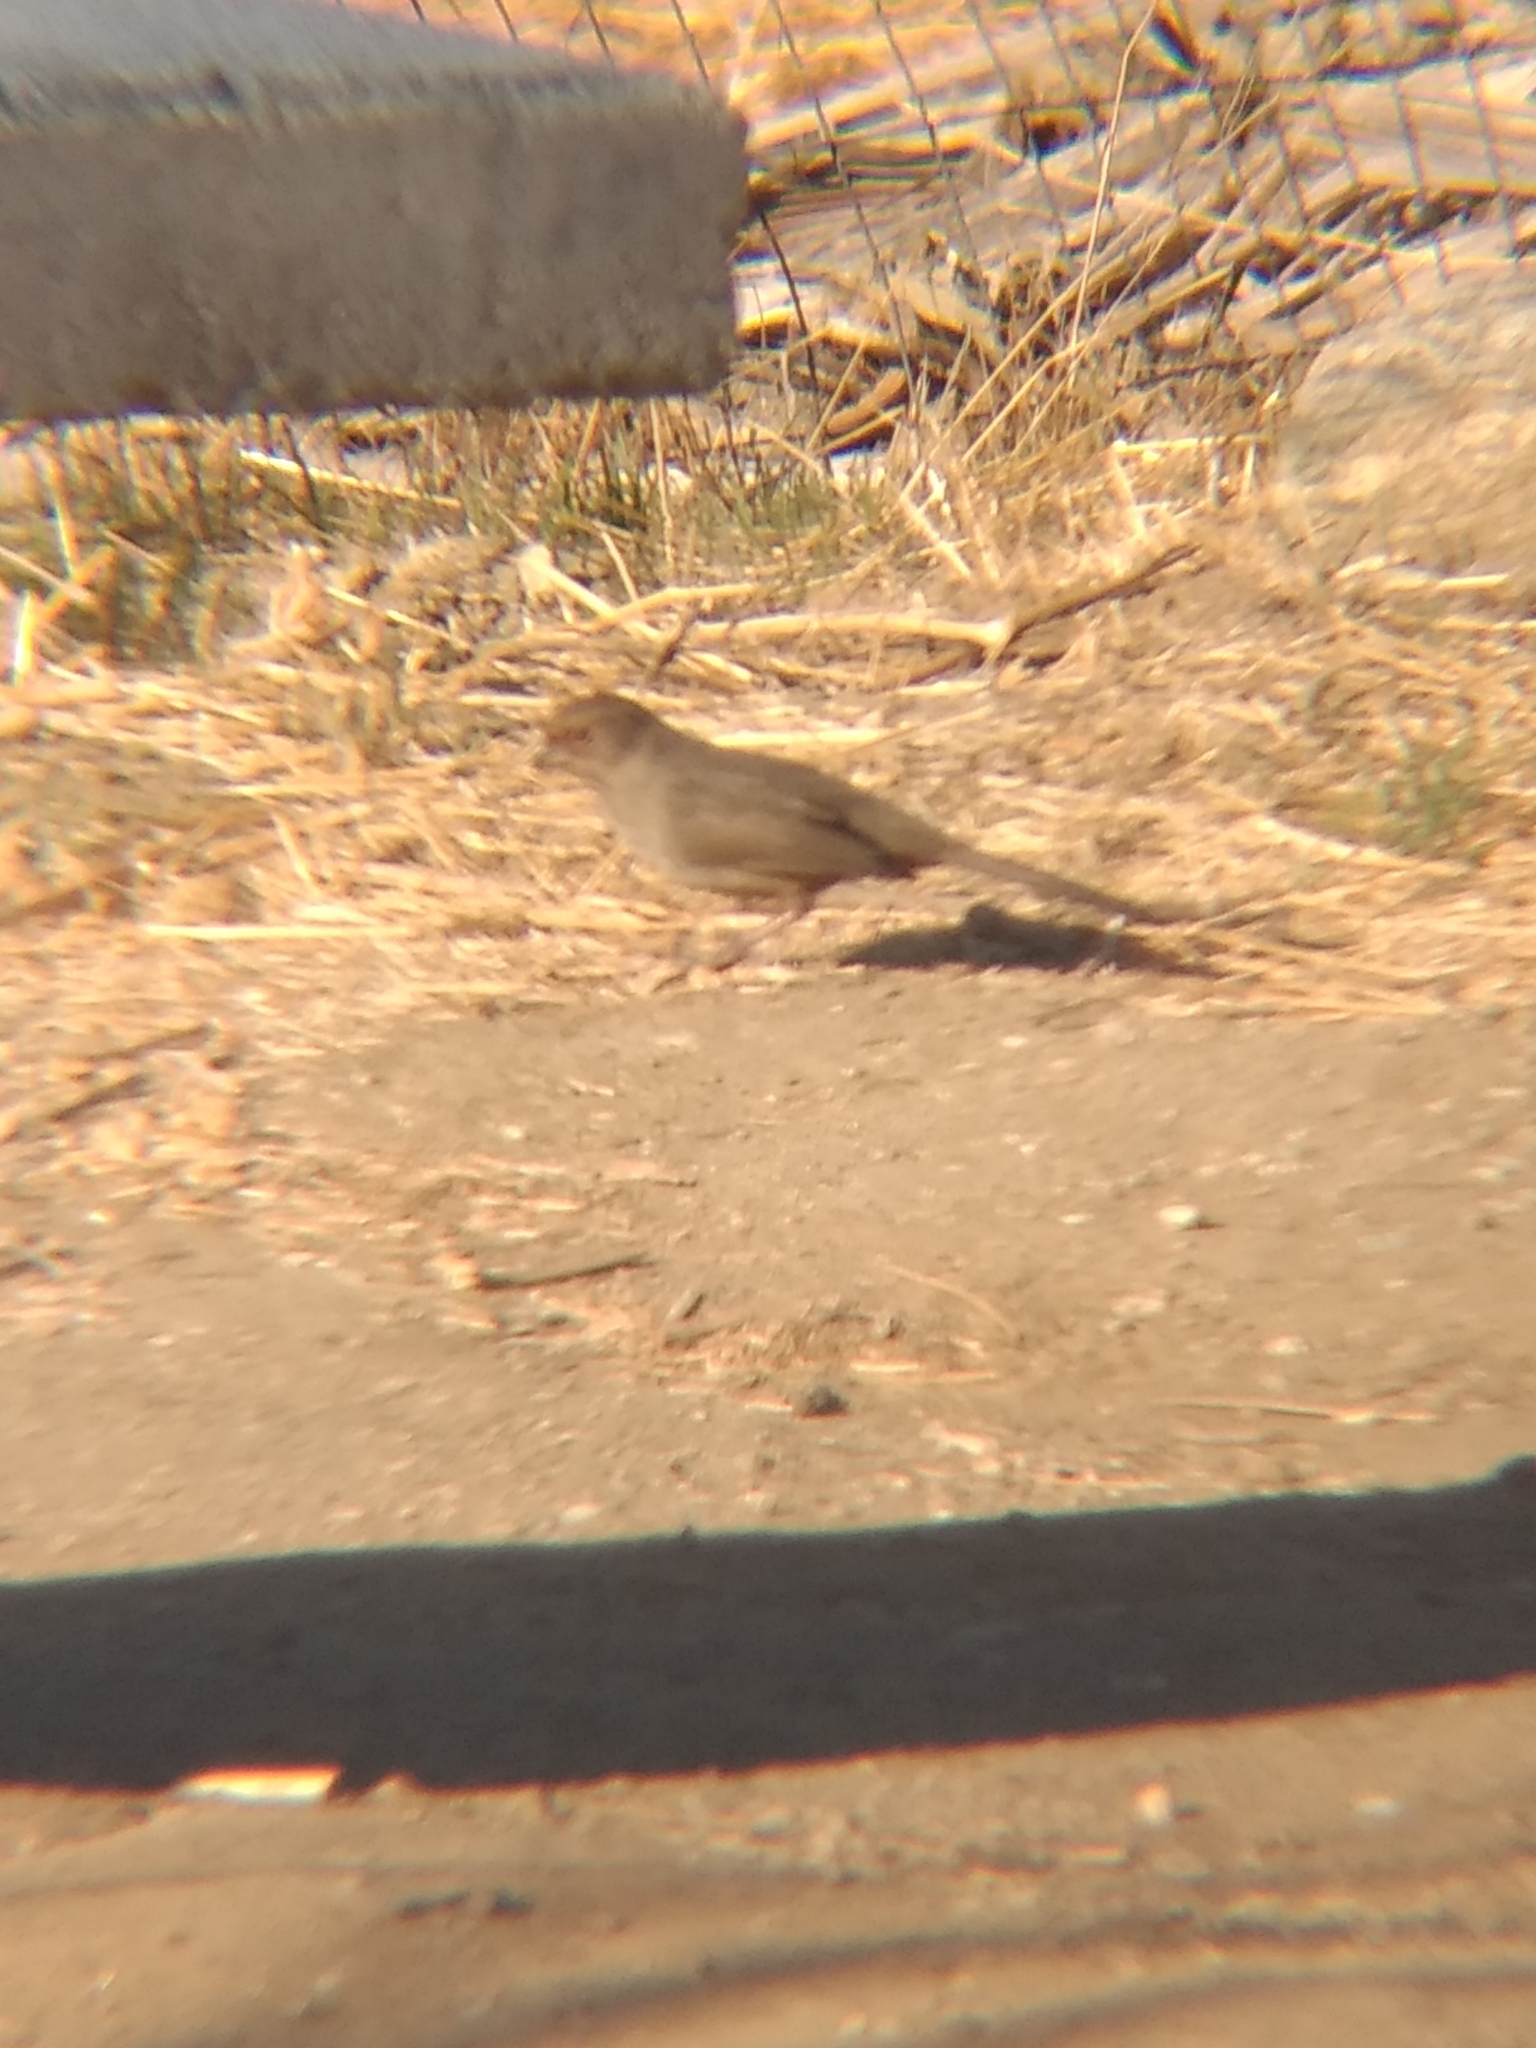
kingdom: Animalia
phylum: Chordata
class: Aves
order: Passeriformes
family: Passerellidae
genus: Melozone
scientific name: Melozone crissalis
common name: California towhee
